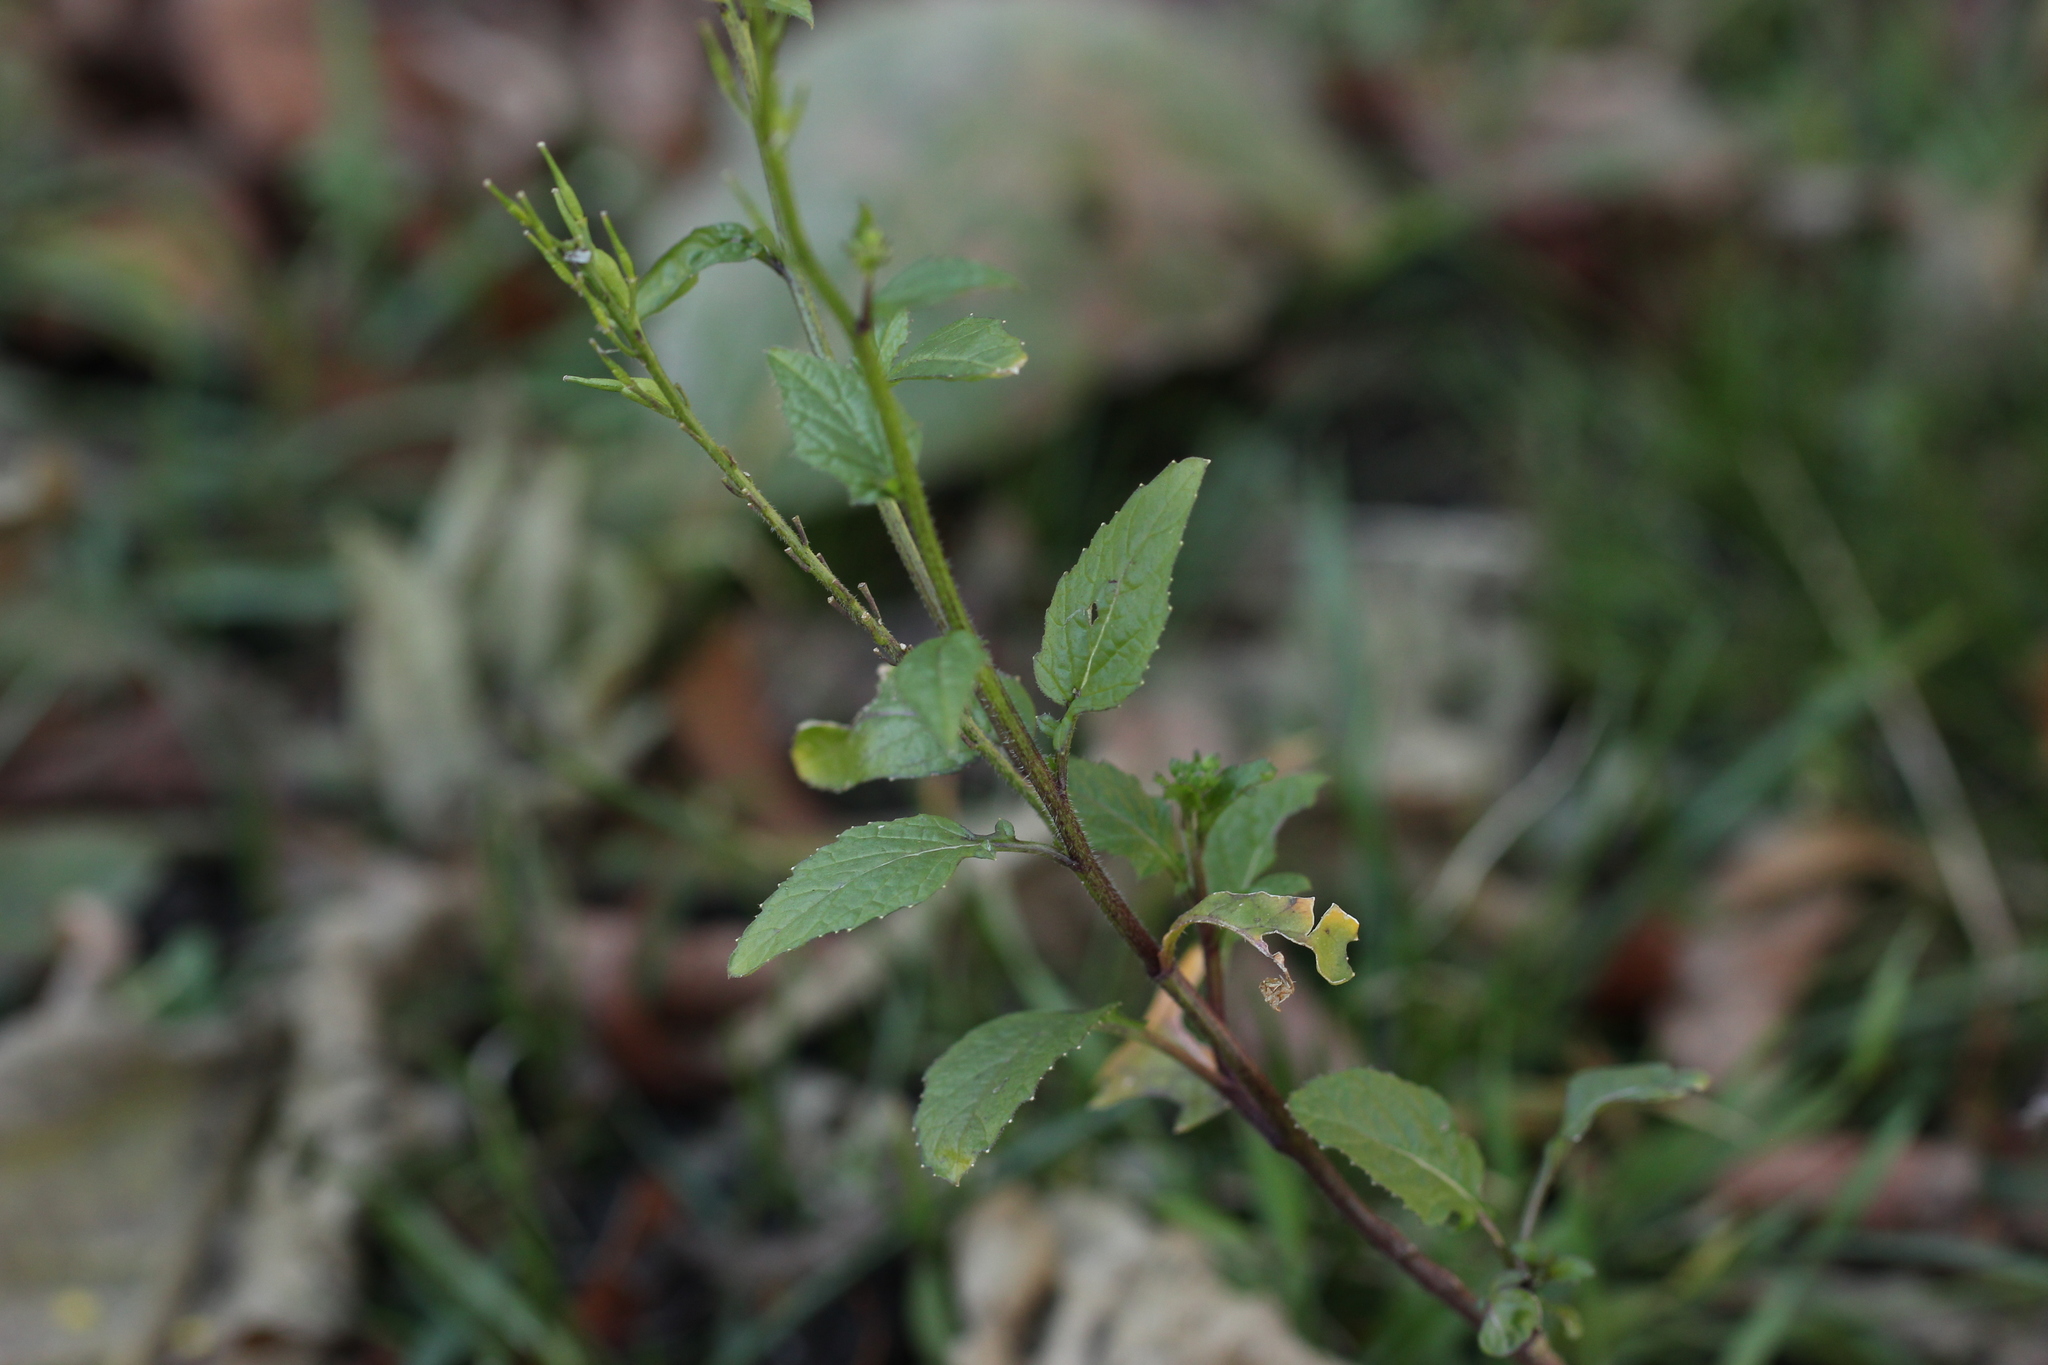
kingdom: Plantae
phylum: Tracheophyta
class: Magnoliopsida
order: Brassicales
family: Brassicaceae
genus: Sinapis
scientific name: Sinapis arvensis
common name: Charlock
